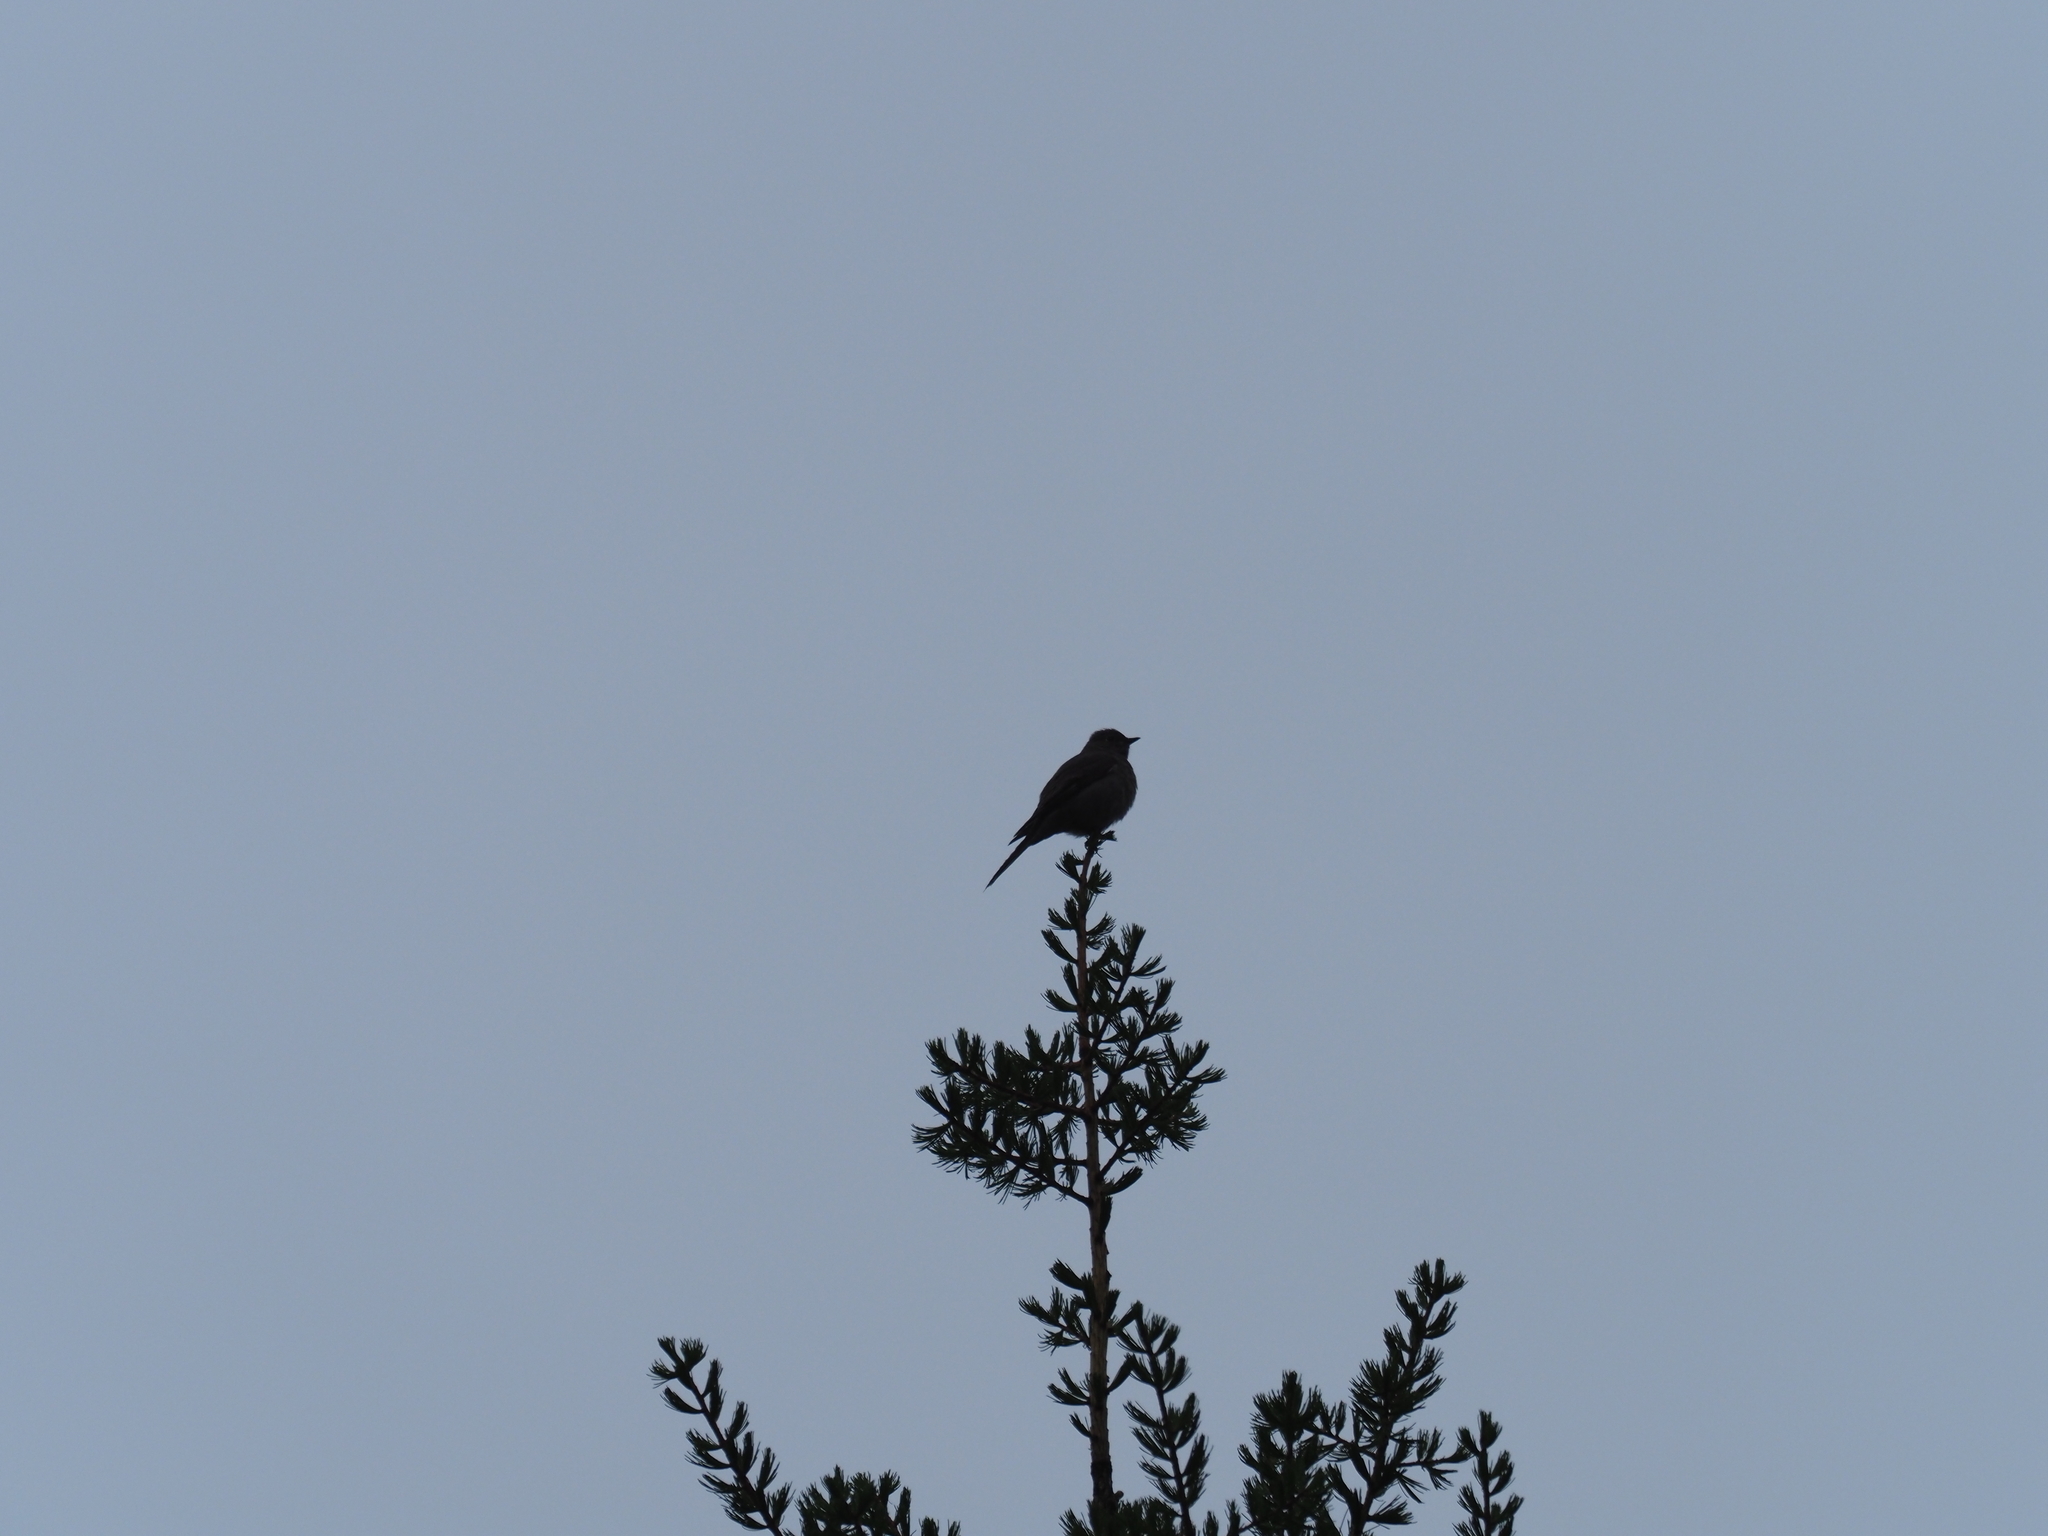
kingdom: Animalia
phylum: Chordata
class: Aves
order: Passeriformes
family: Turdidae
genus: Myadestes
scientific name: Myadestes townsendi
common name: Townsend's solitaire
